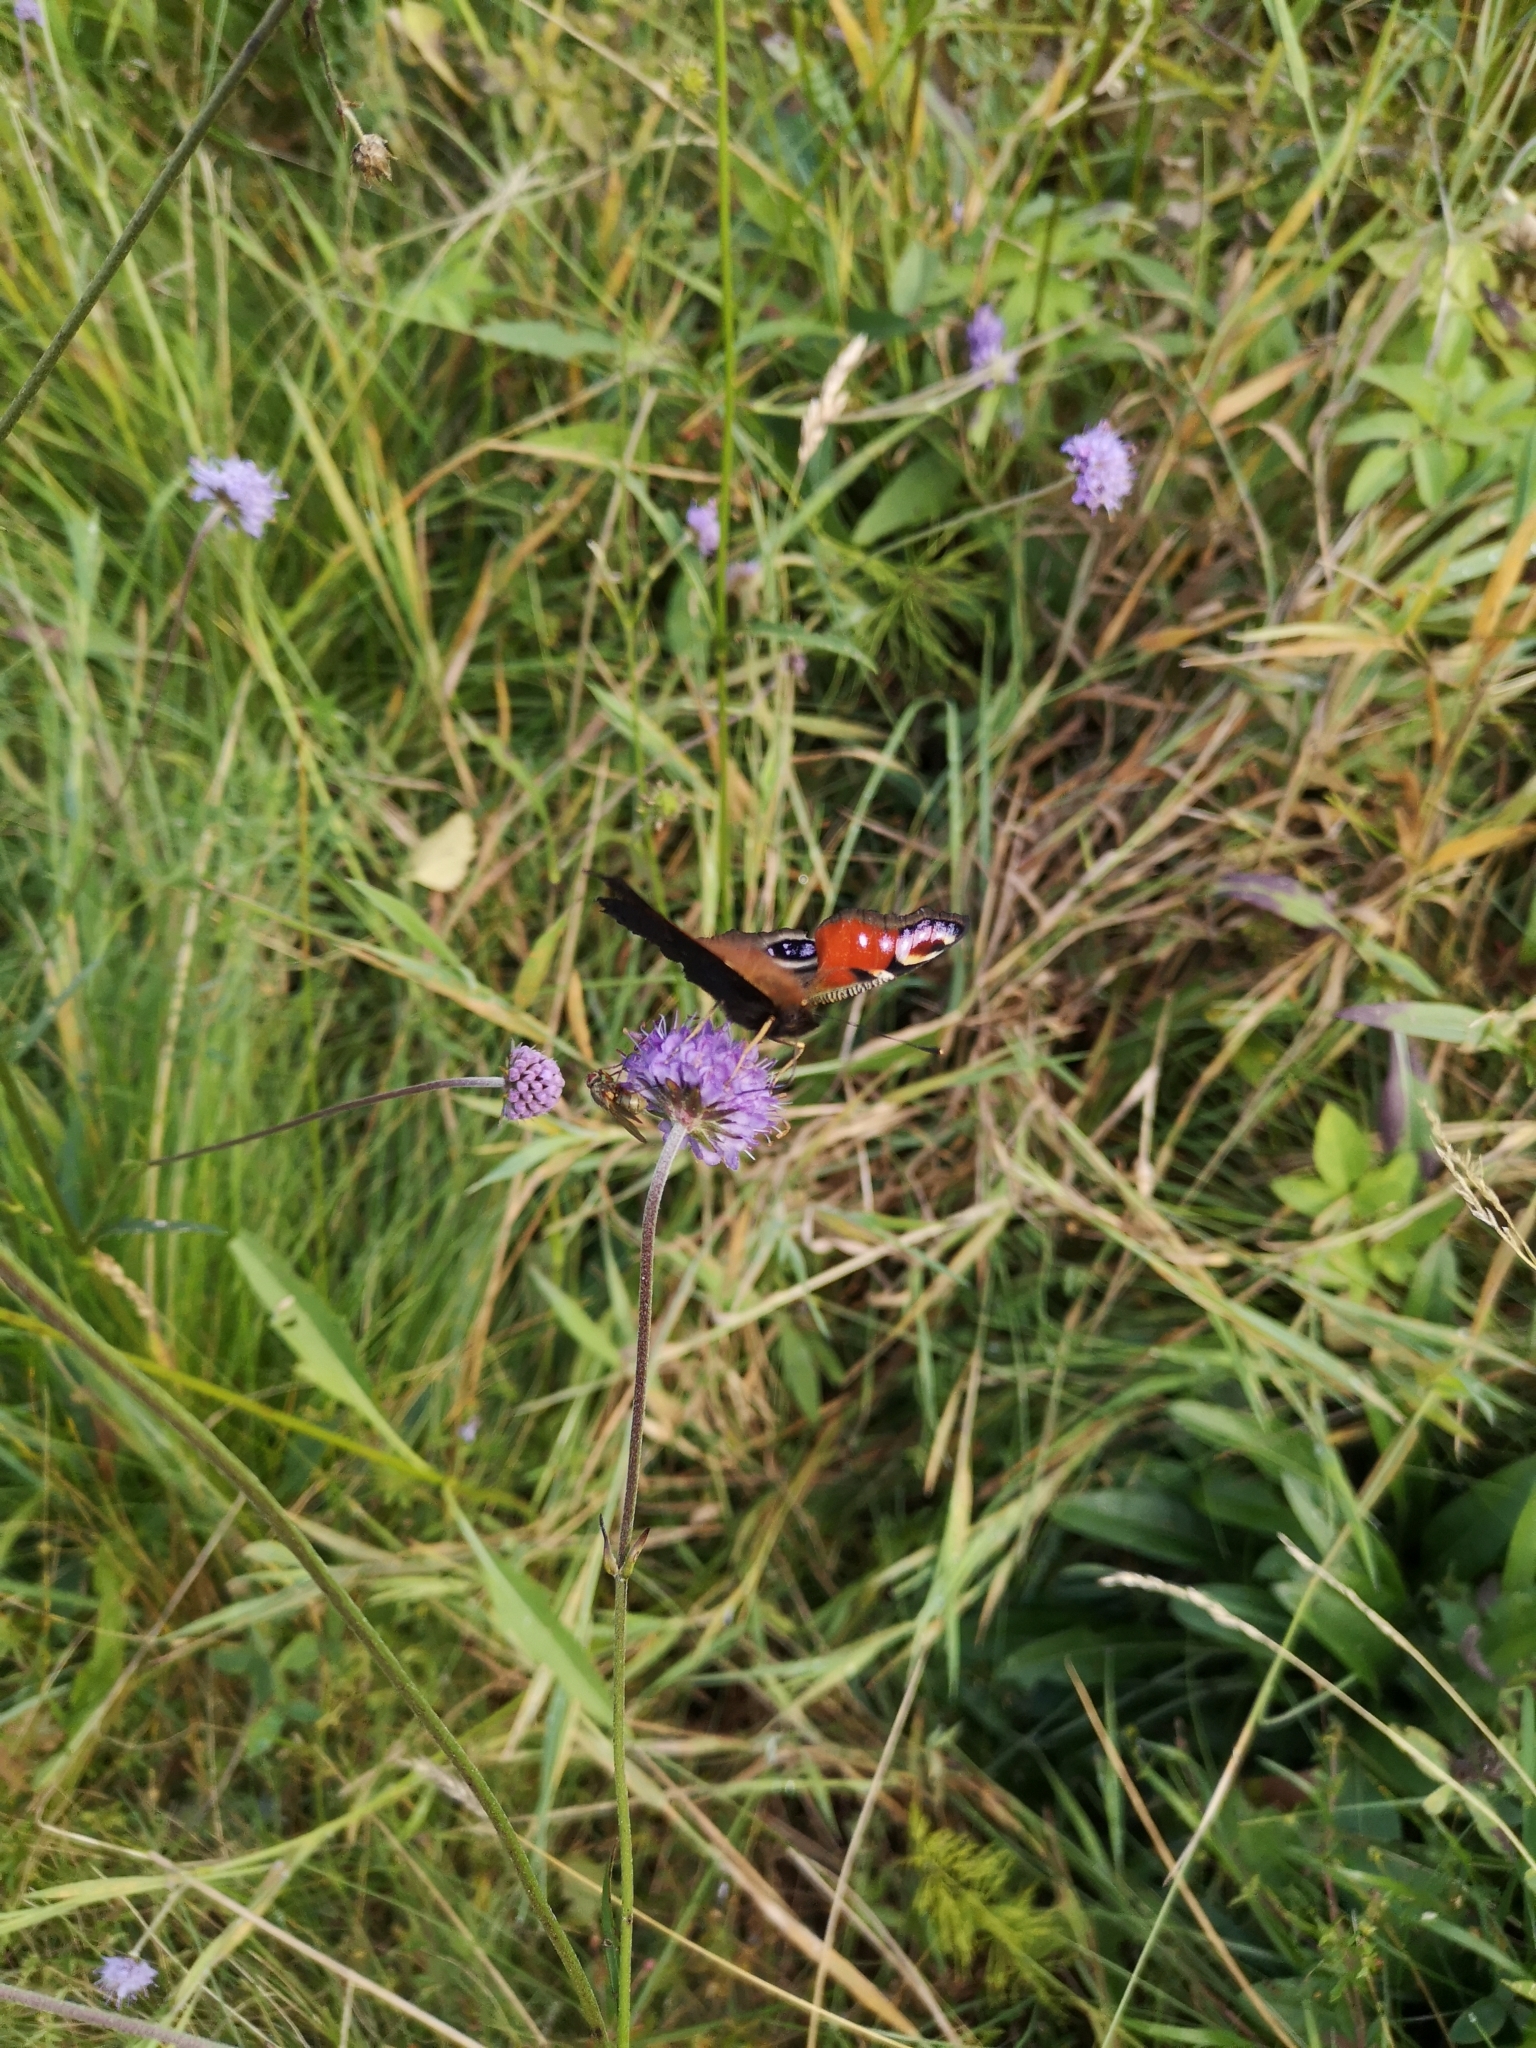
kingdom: Animalia
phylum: Arthropoda
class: Insecta
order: Lepidoptera
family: Nymphalidae
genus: Aglais
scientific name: Aglais io
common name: Peacock
